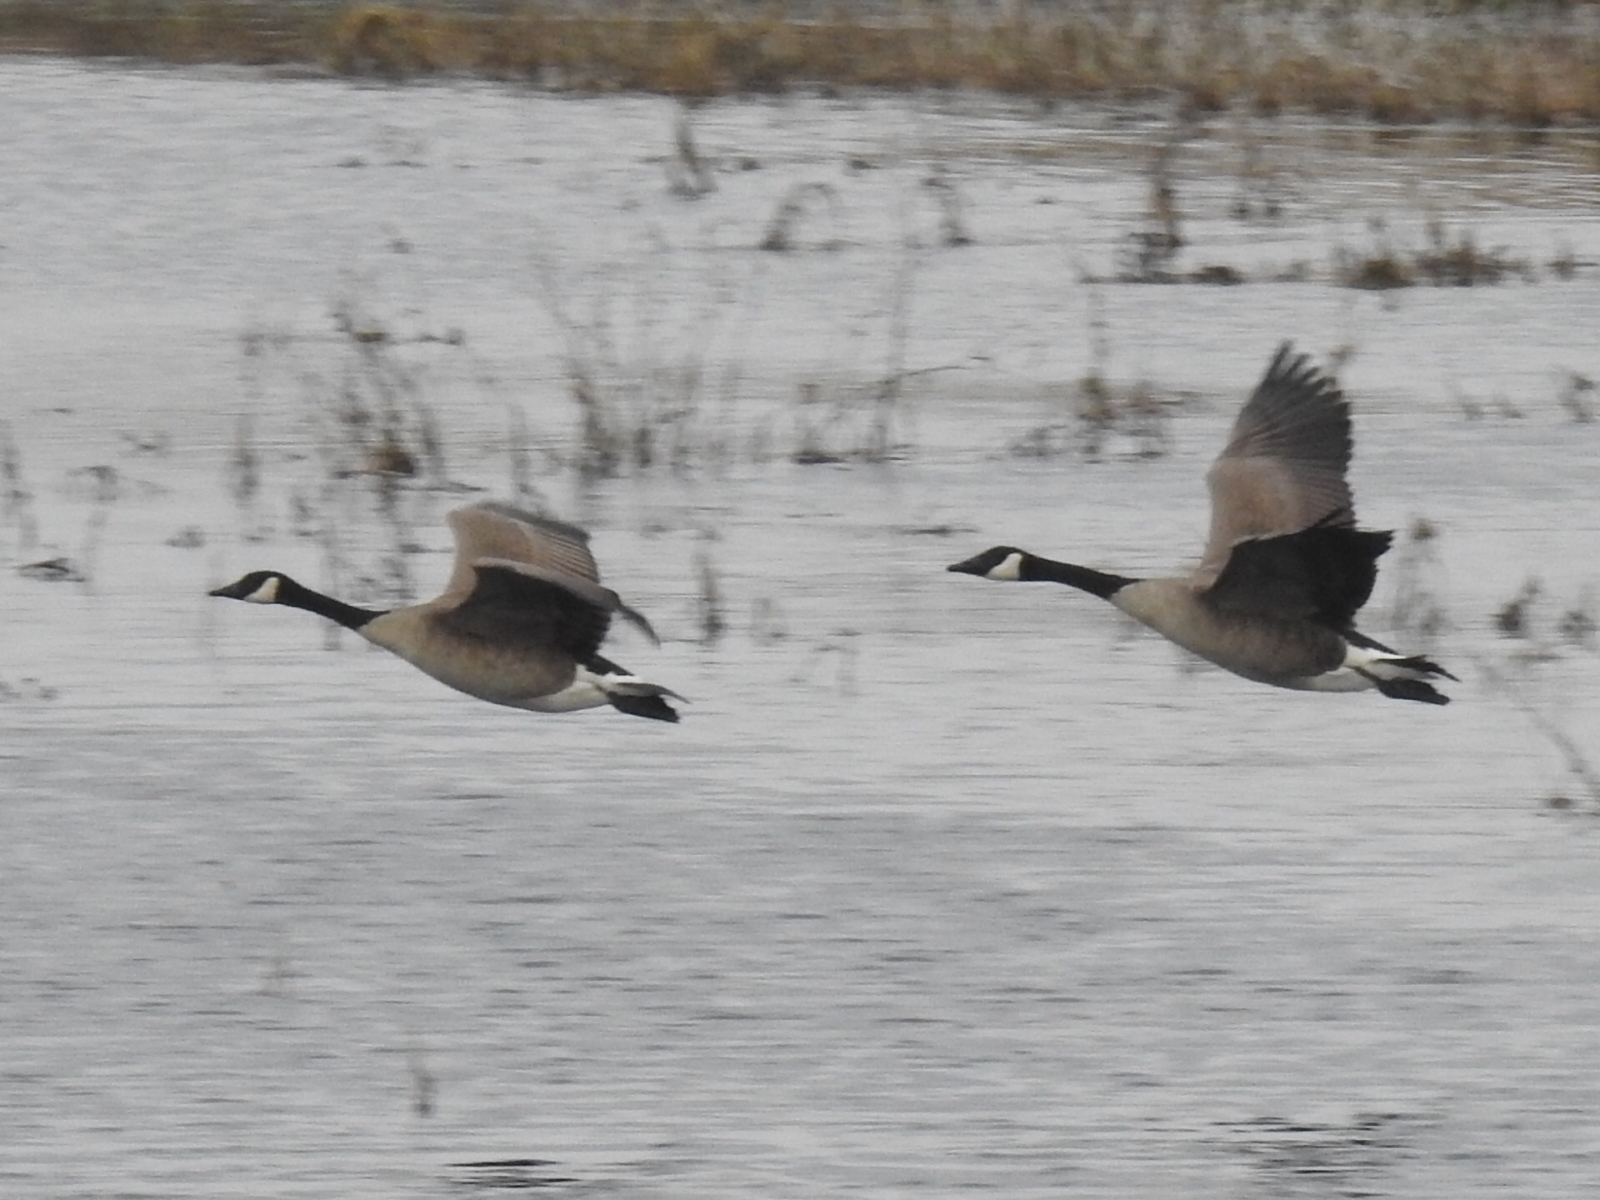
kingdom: Animalia
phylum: Chordata
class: Aves
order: Anseriformes
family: Anatidae
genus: Branta
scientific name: Branta canadensis
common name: Canada goose
